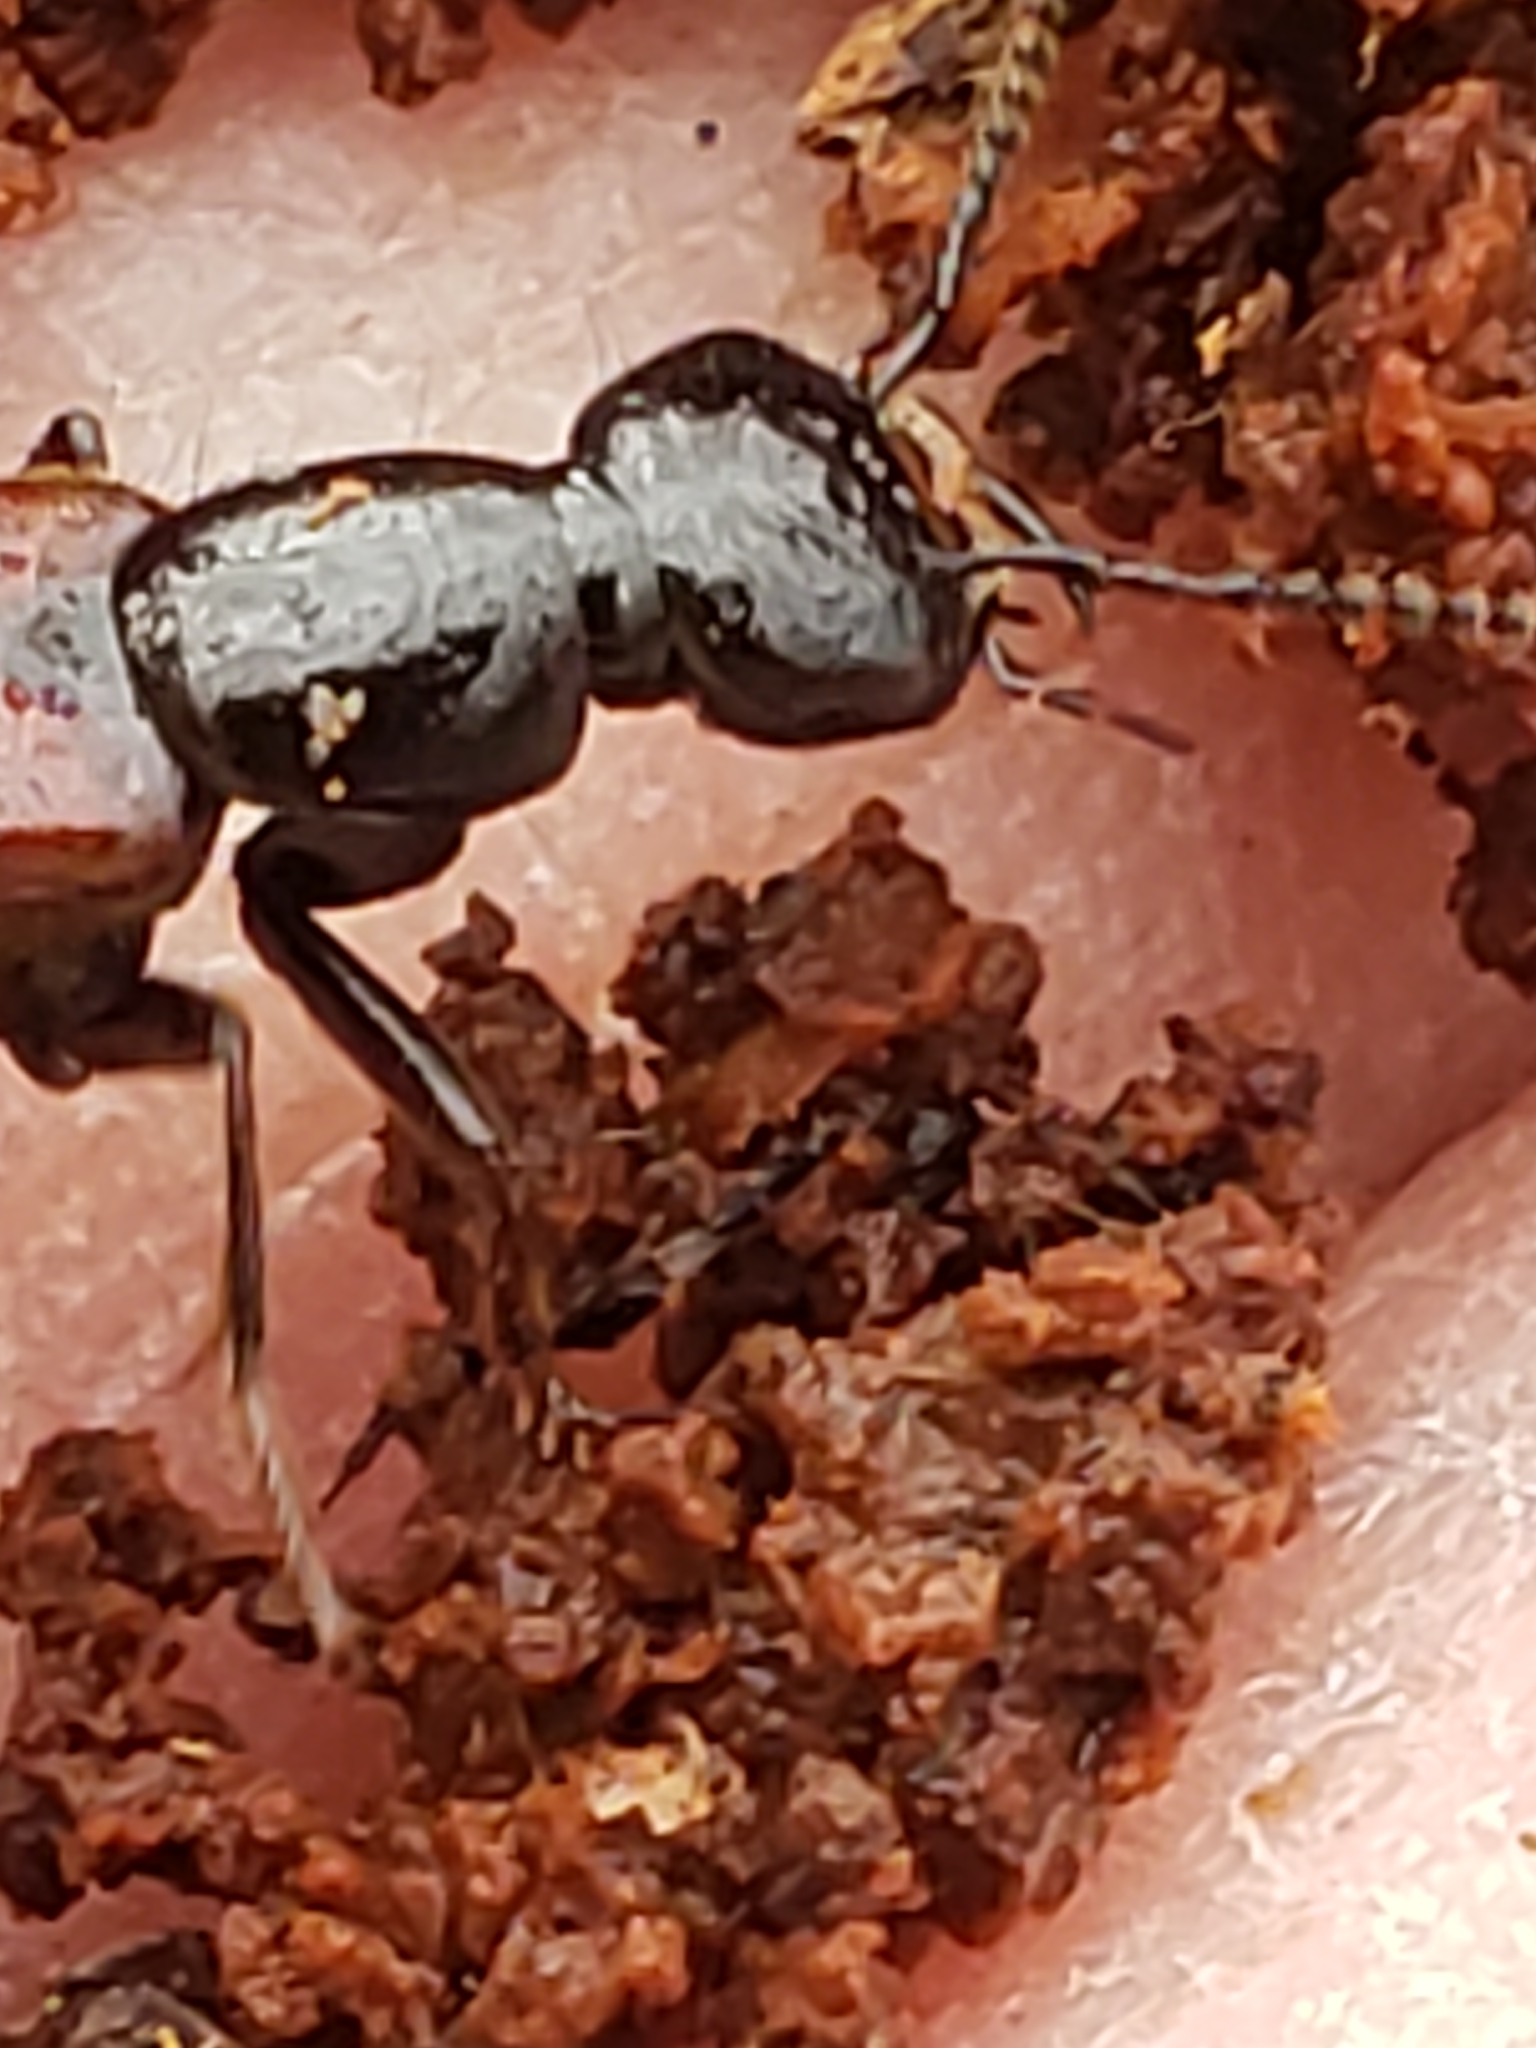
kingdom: Animalia
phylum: Arthropoda
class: Insecta
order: Coleoptera
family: Staphylinidae
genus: Hesperus
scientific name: Hesperus baltimorensis
